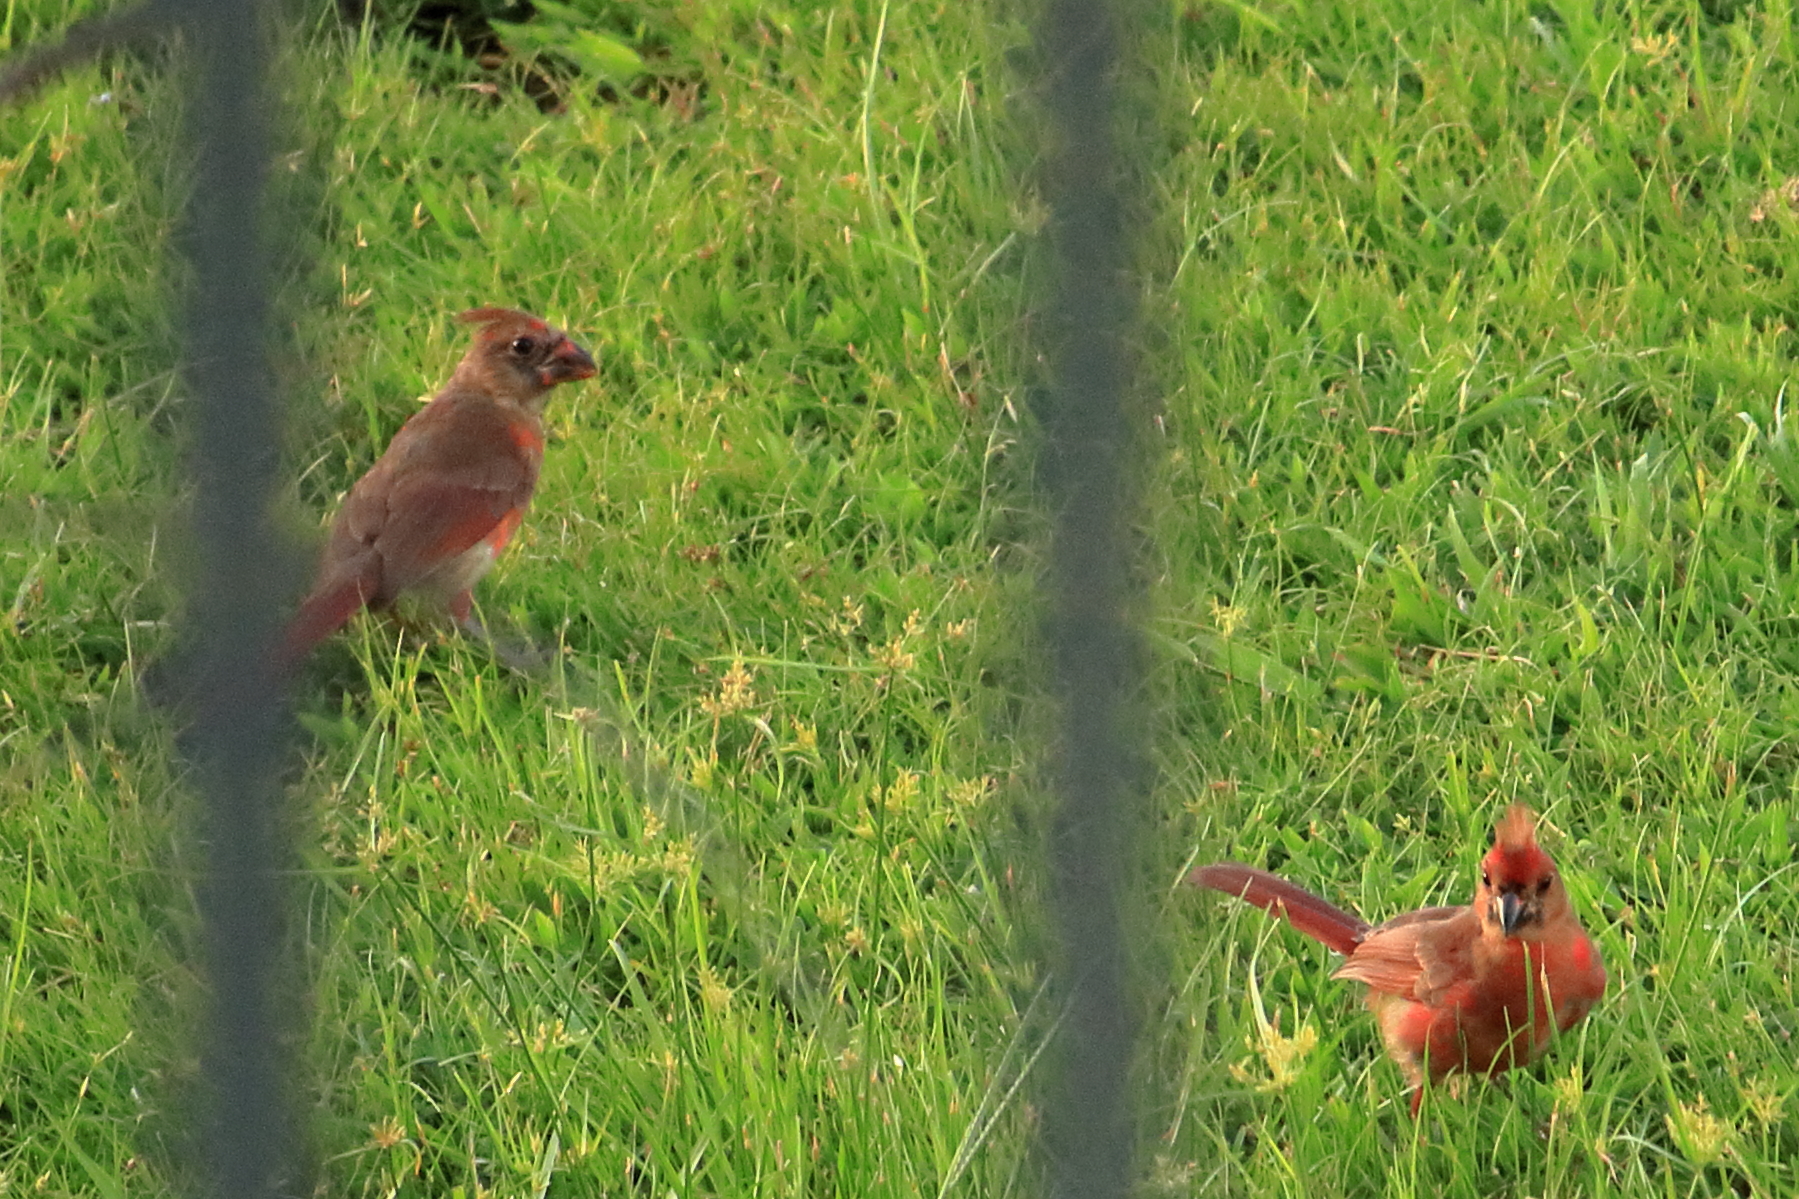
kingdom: Animalia
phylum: Chordata
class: Aves
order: Passeriformes
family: Cardinalidae
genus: Cardinalis
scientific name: Cardinalis cardinalis
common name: Northern cardinal
